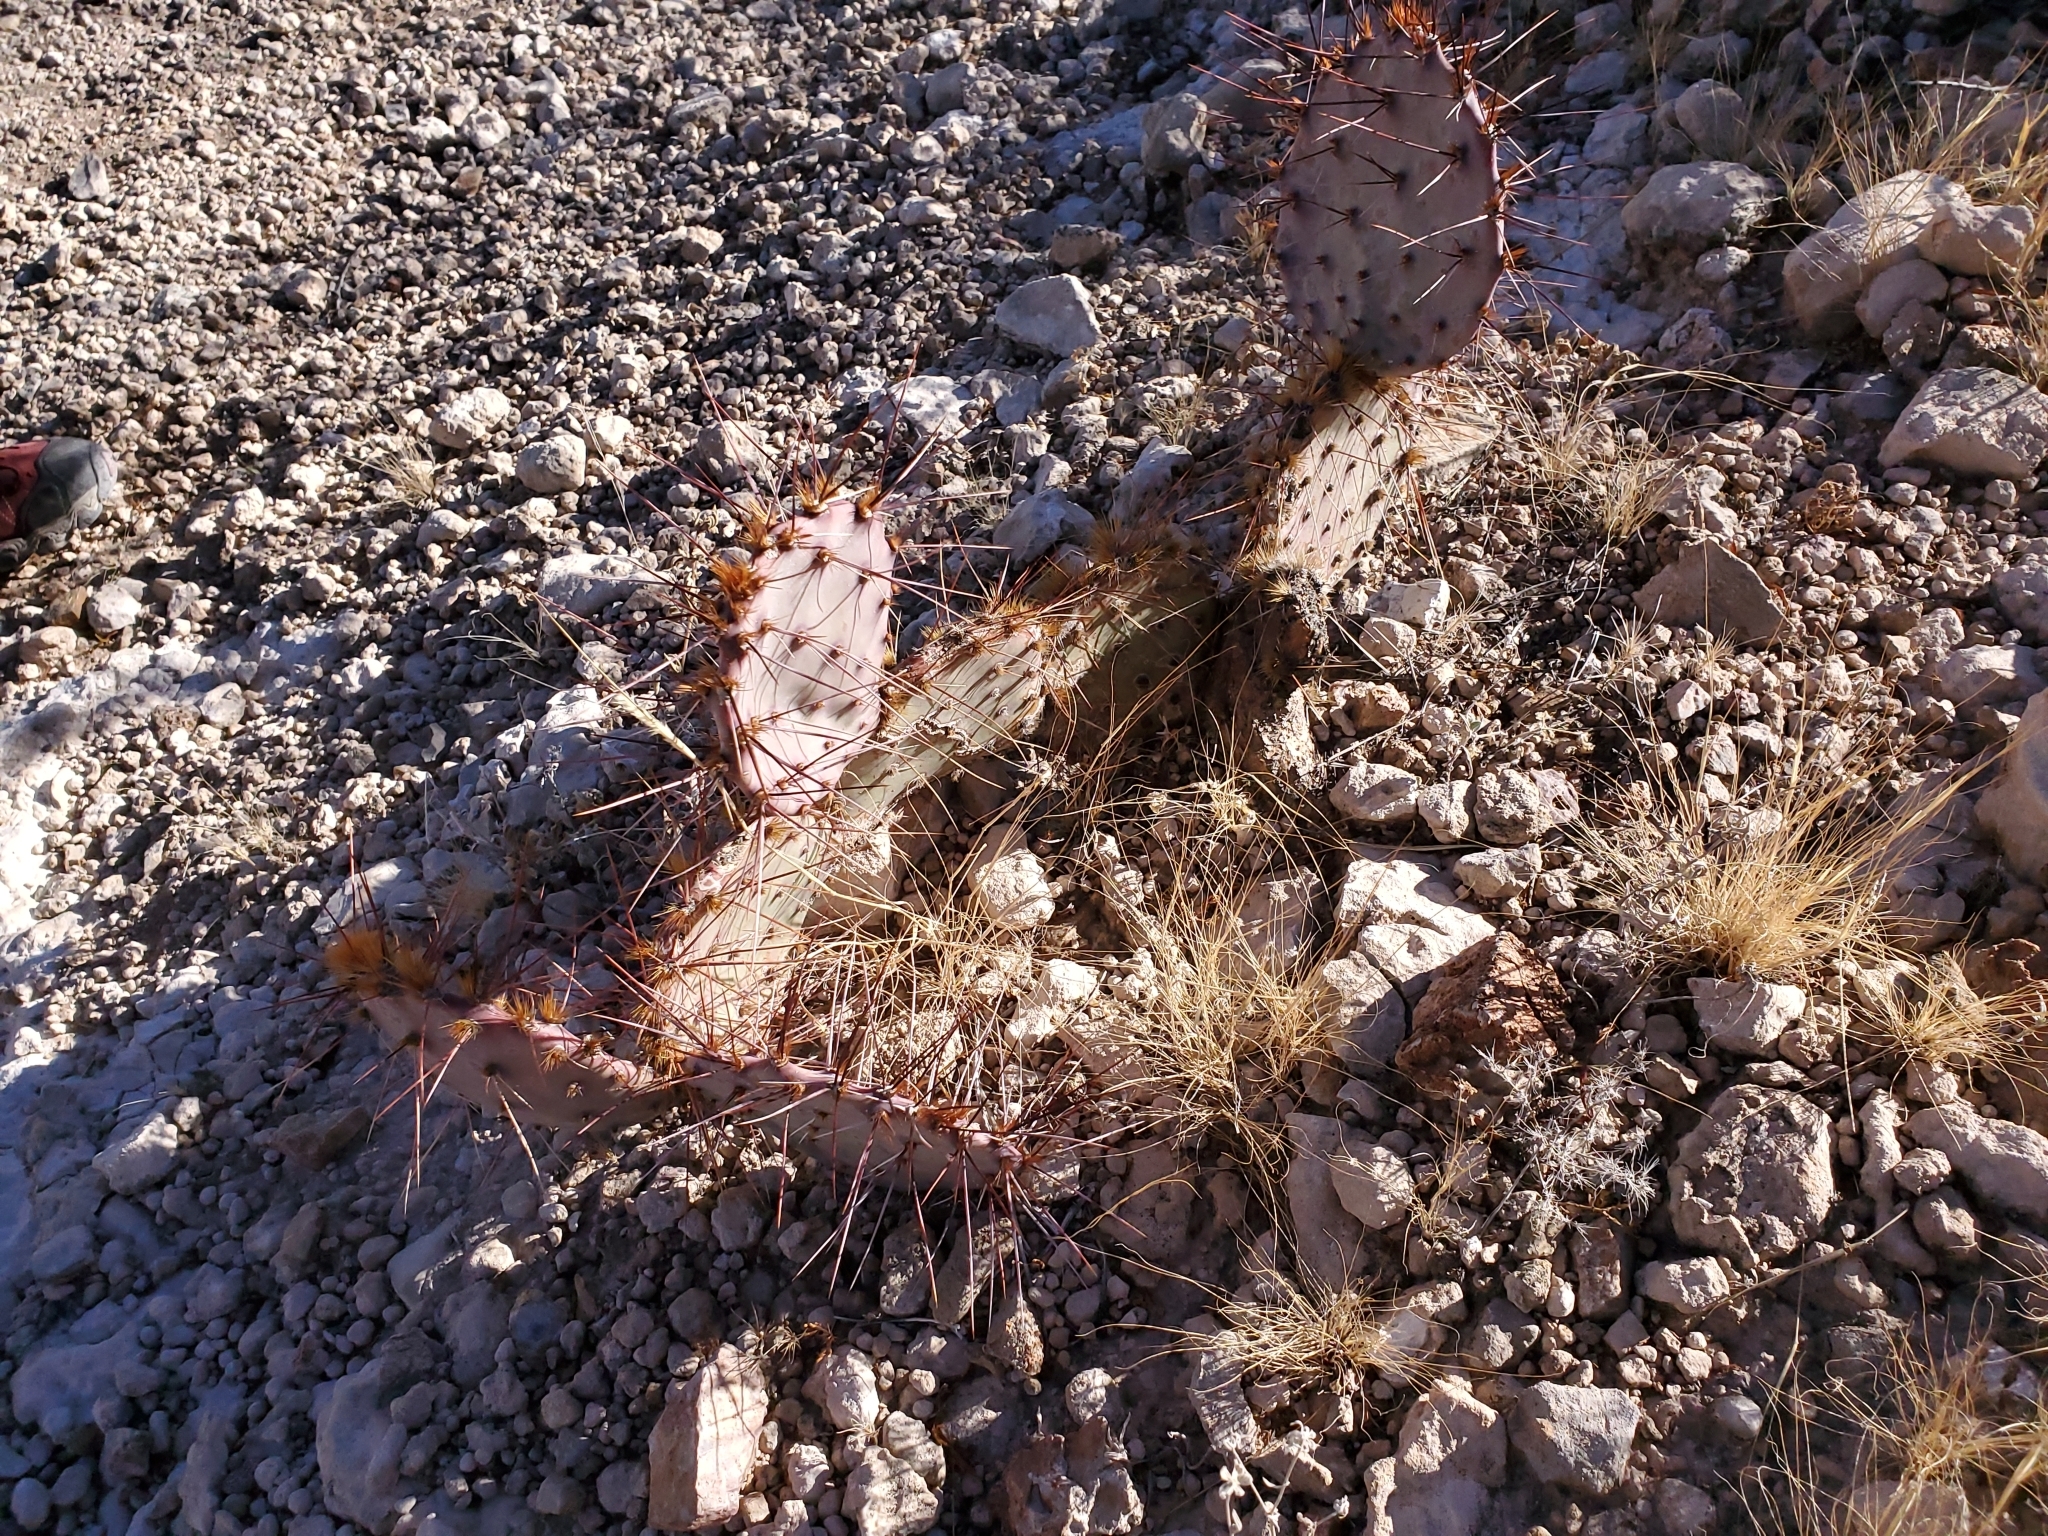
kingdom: Plantae
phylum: Tracheophyta
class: Magnoliopsida
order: Caryophyllales
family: Cactaceae
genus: Opuntia
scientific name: Opuntia macrocentra
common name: Purple prickly-pear
